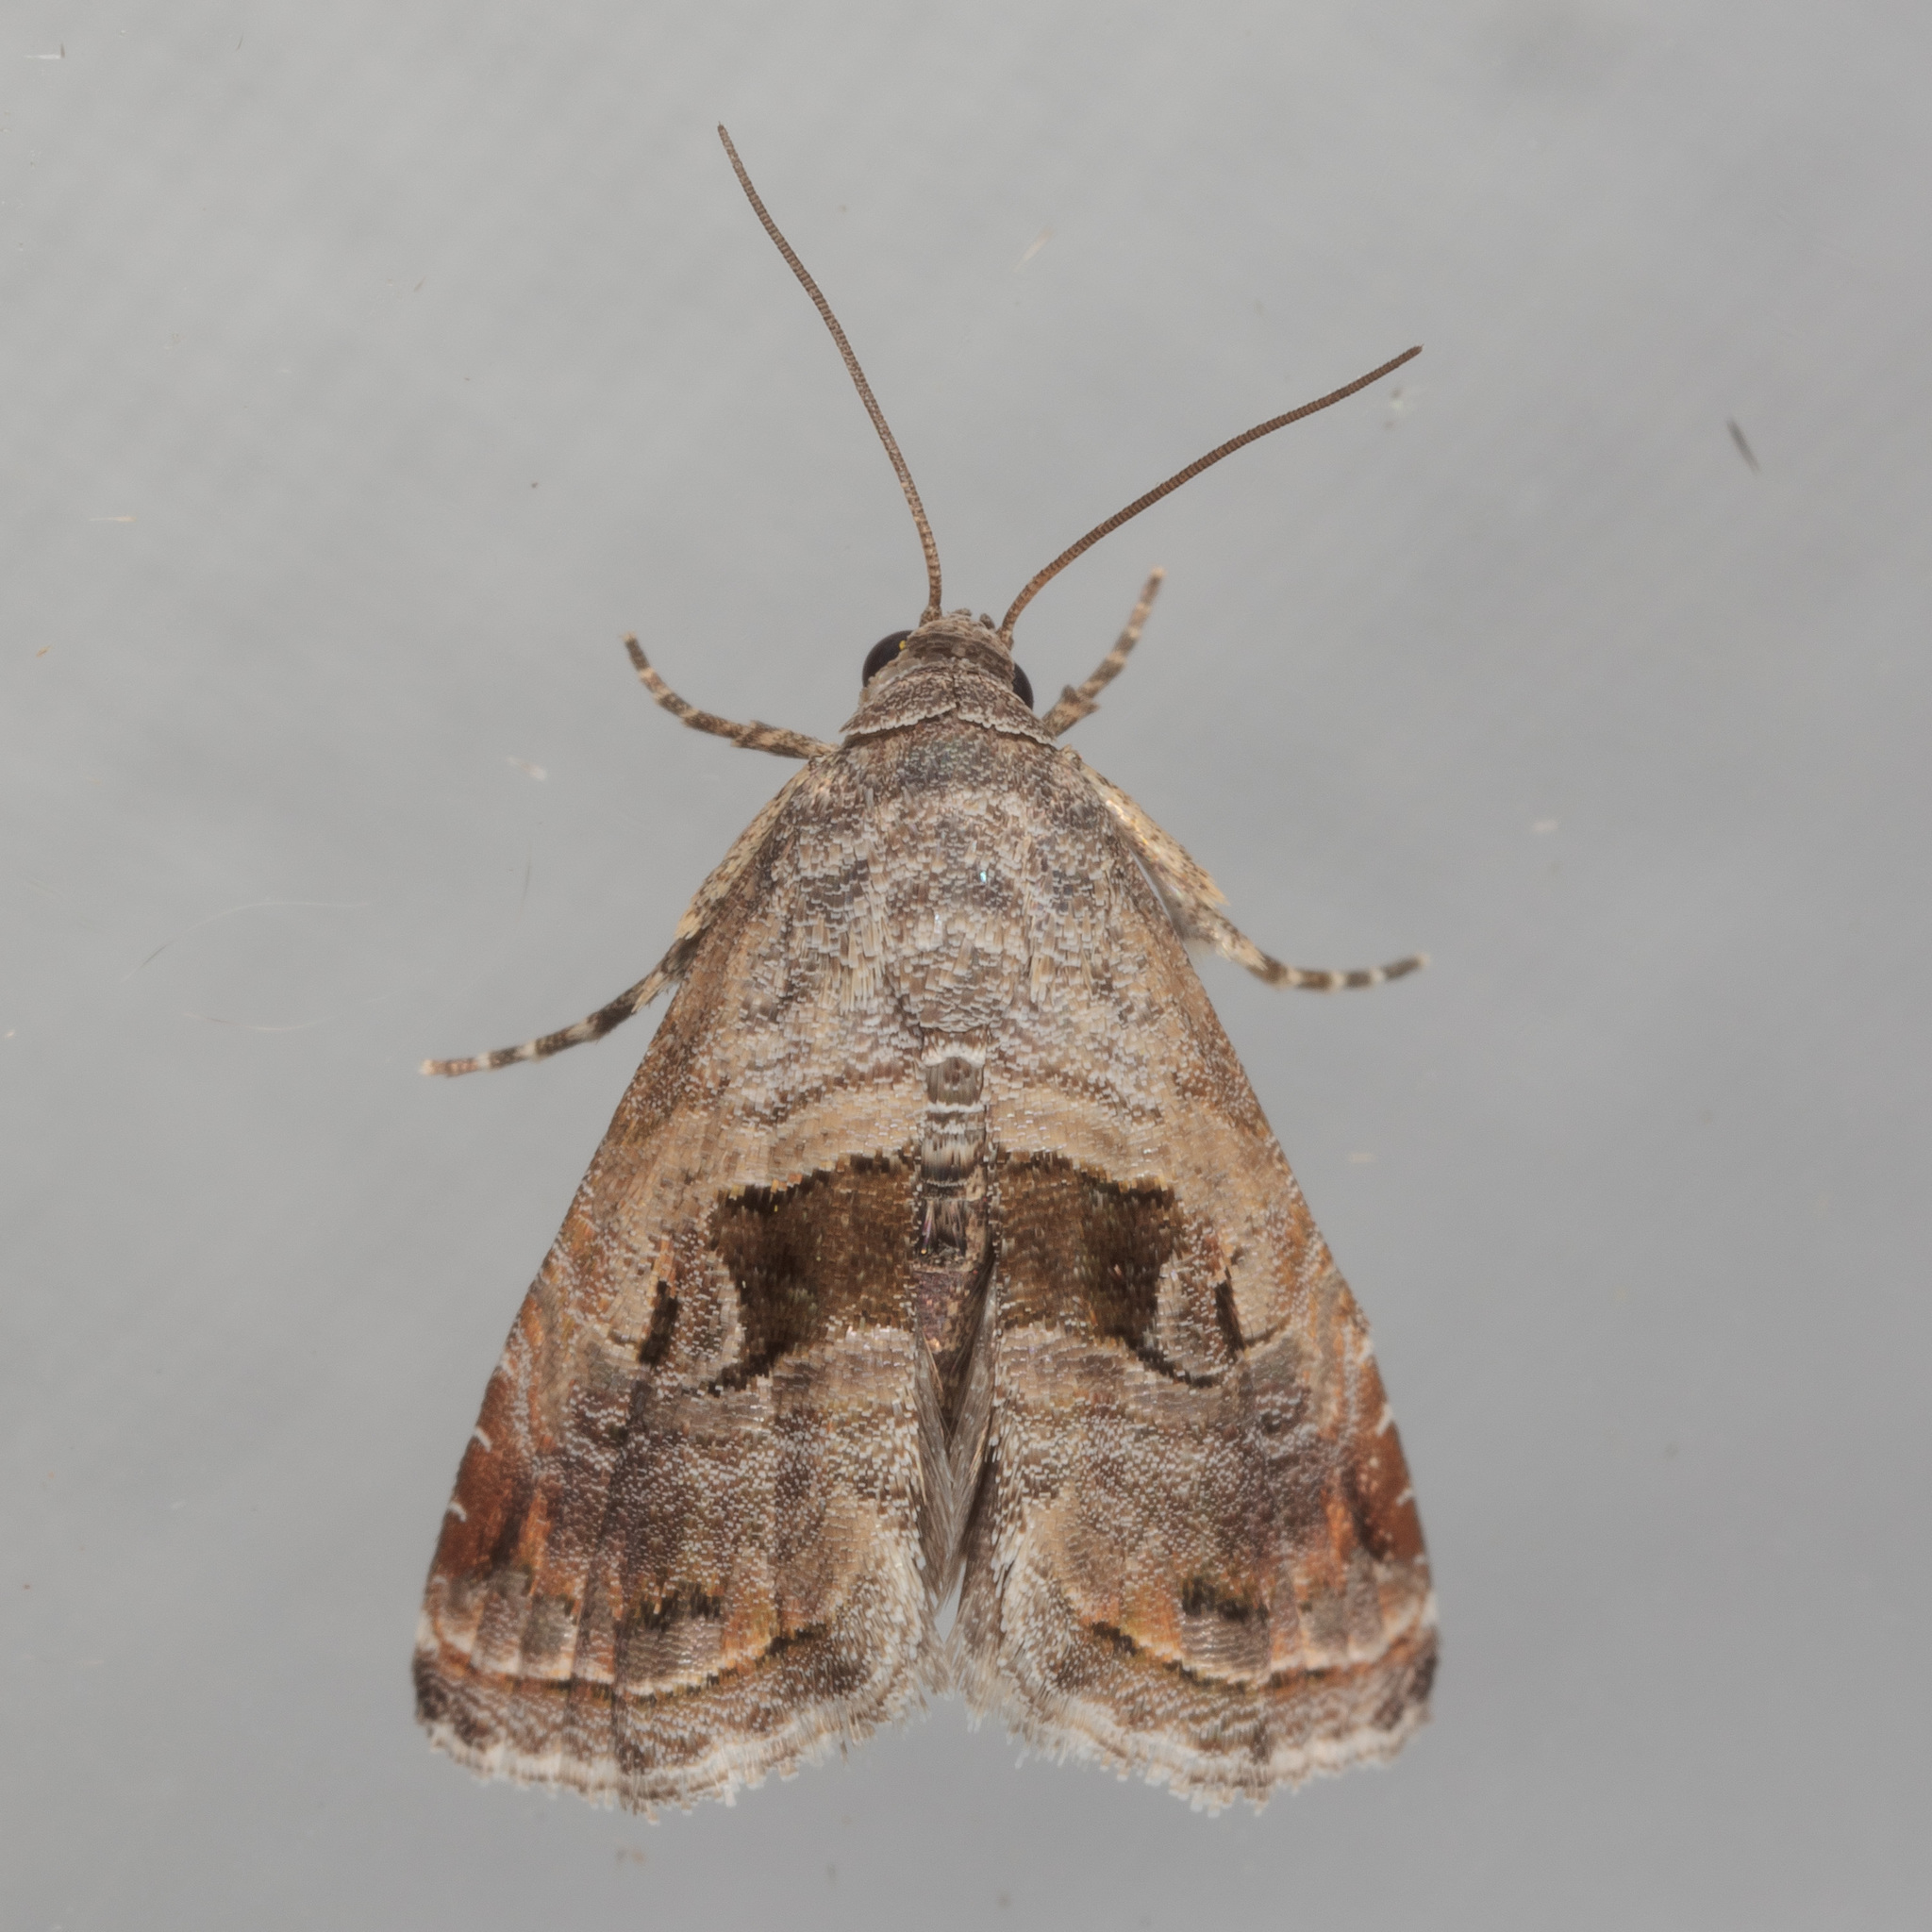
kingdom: Animalia
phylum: Arthropoda
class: Insecta
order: Lepidoptera
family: Noctuidae
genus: Tripudia
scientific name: Tripudia quadrifera
